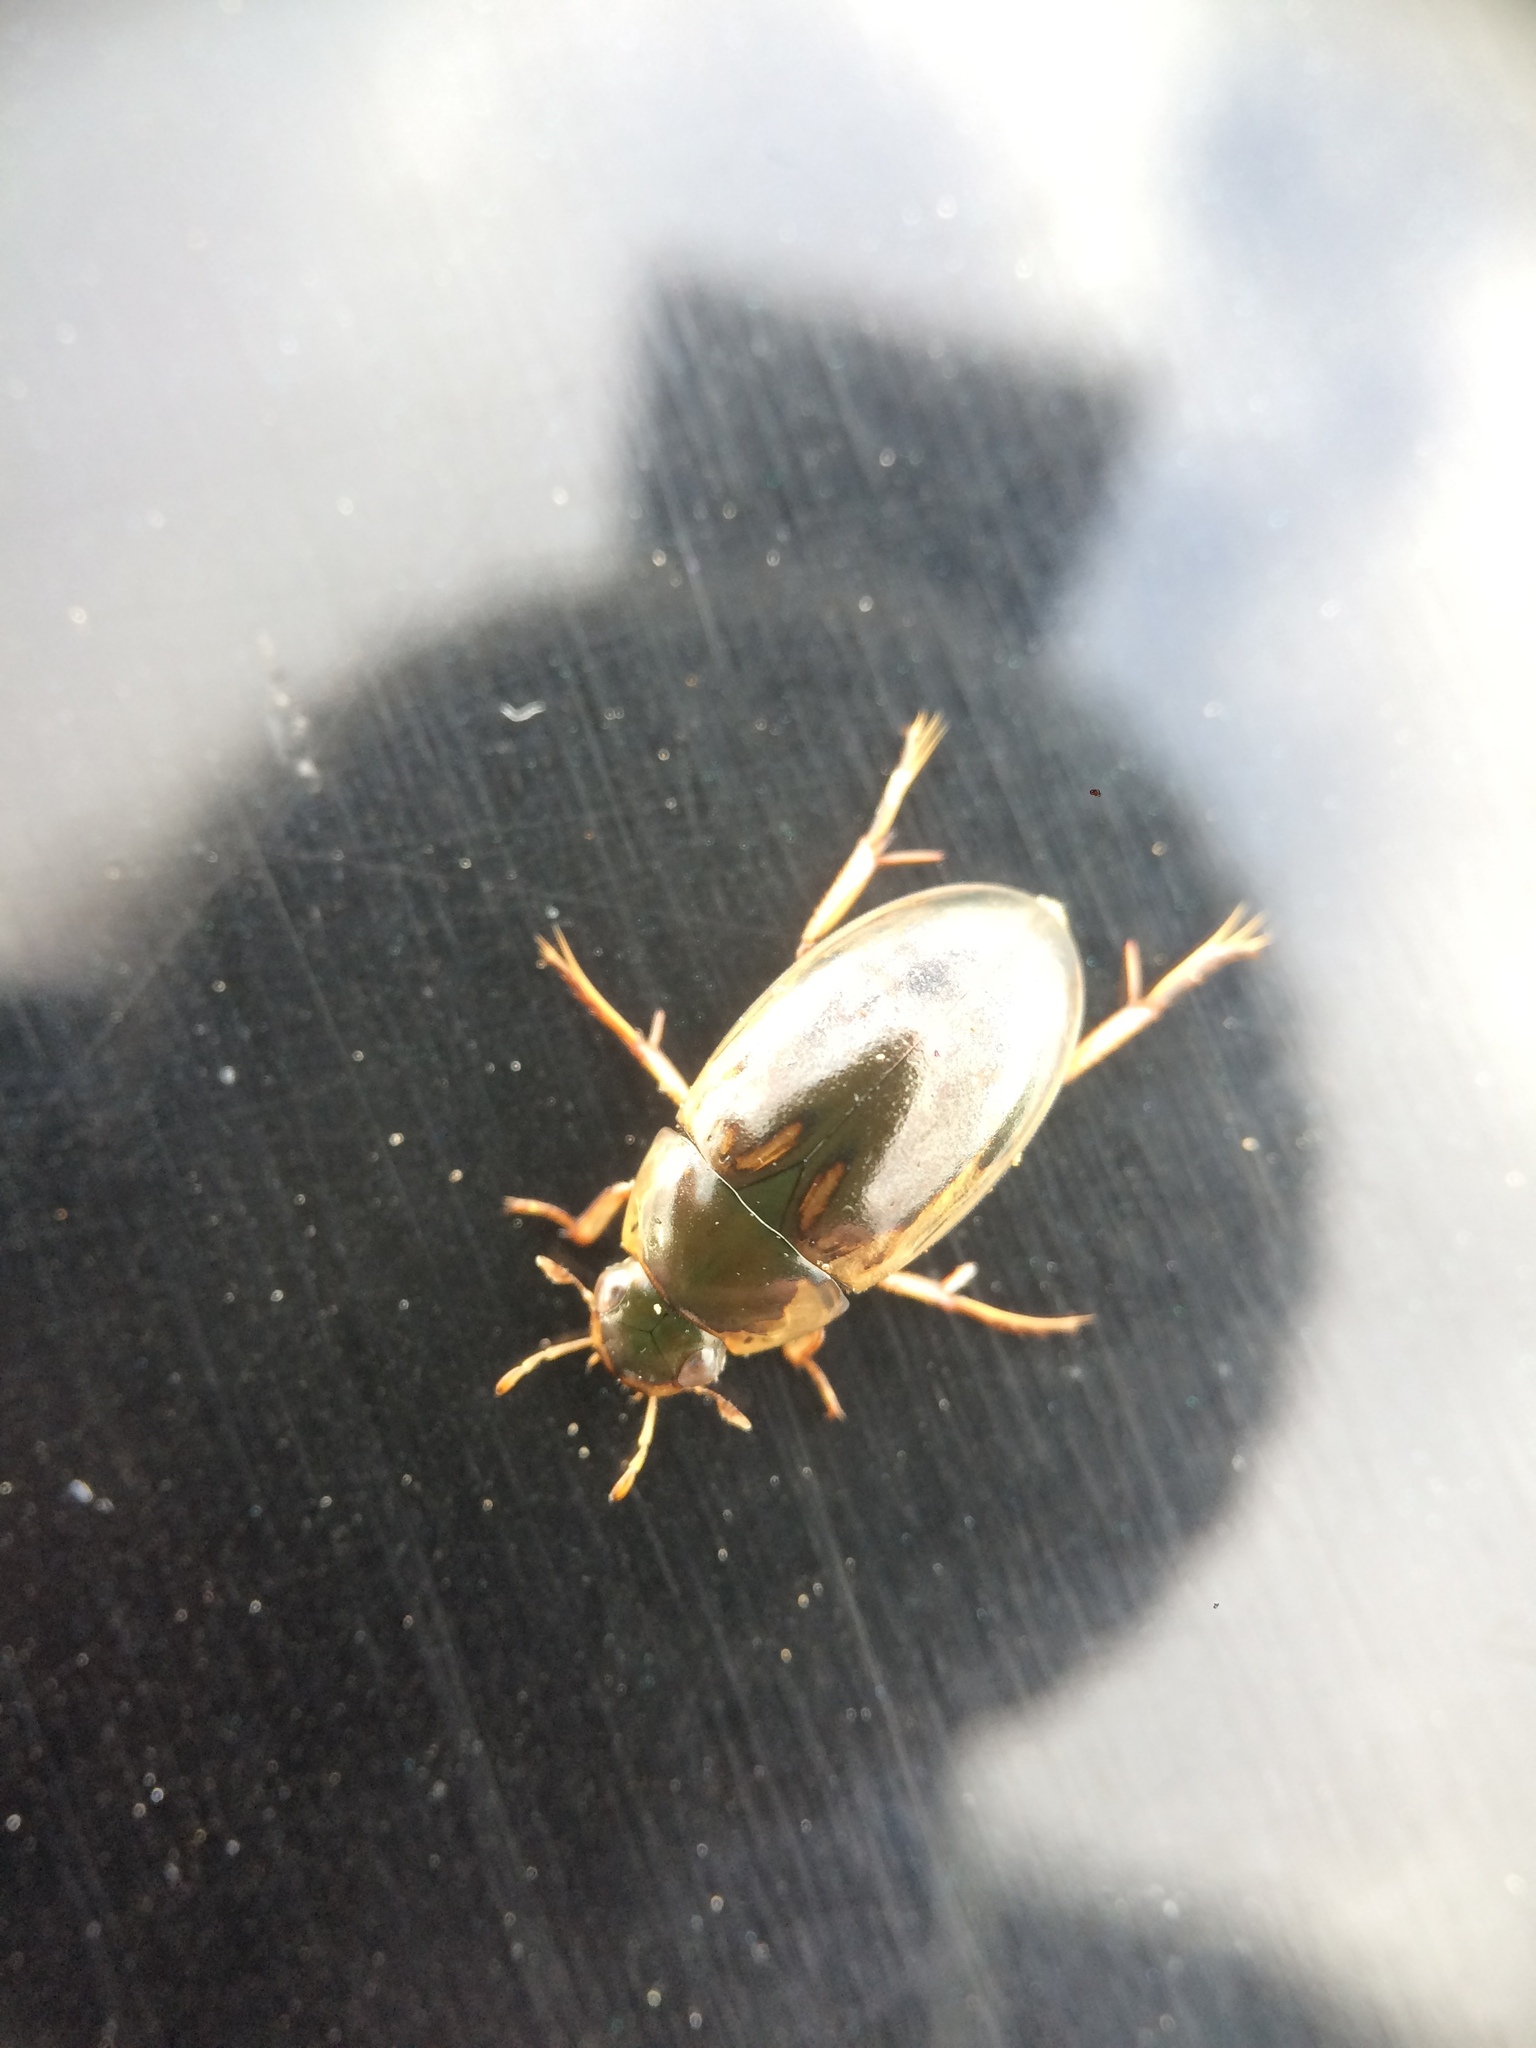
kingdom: Animalia
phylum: Arthropoda
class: Insecta
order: Coleoptera
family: Hydrophilidae
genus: Tropisternus
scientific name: Tropisternus lateralis
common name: Lateral-banded water scavenger beetle
